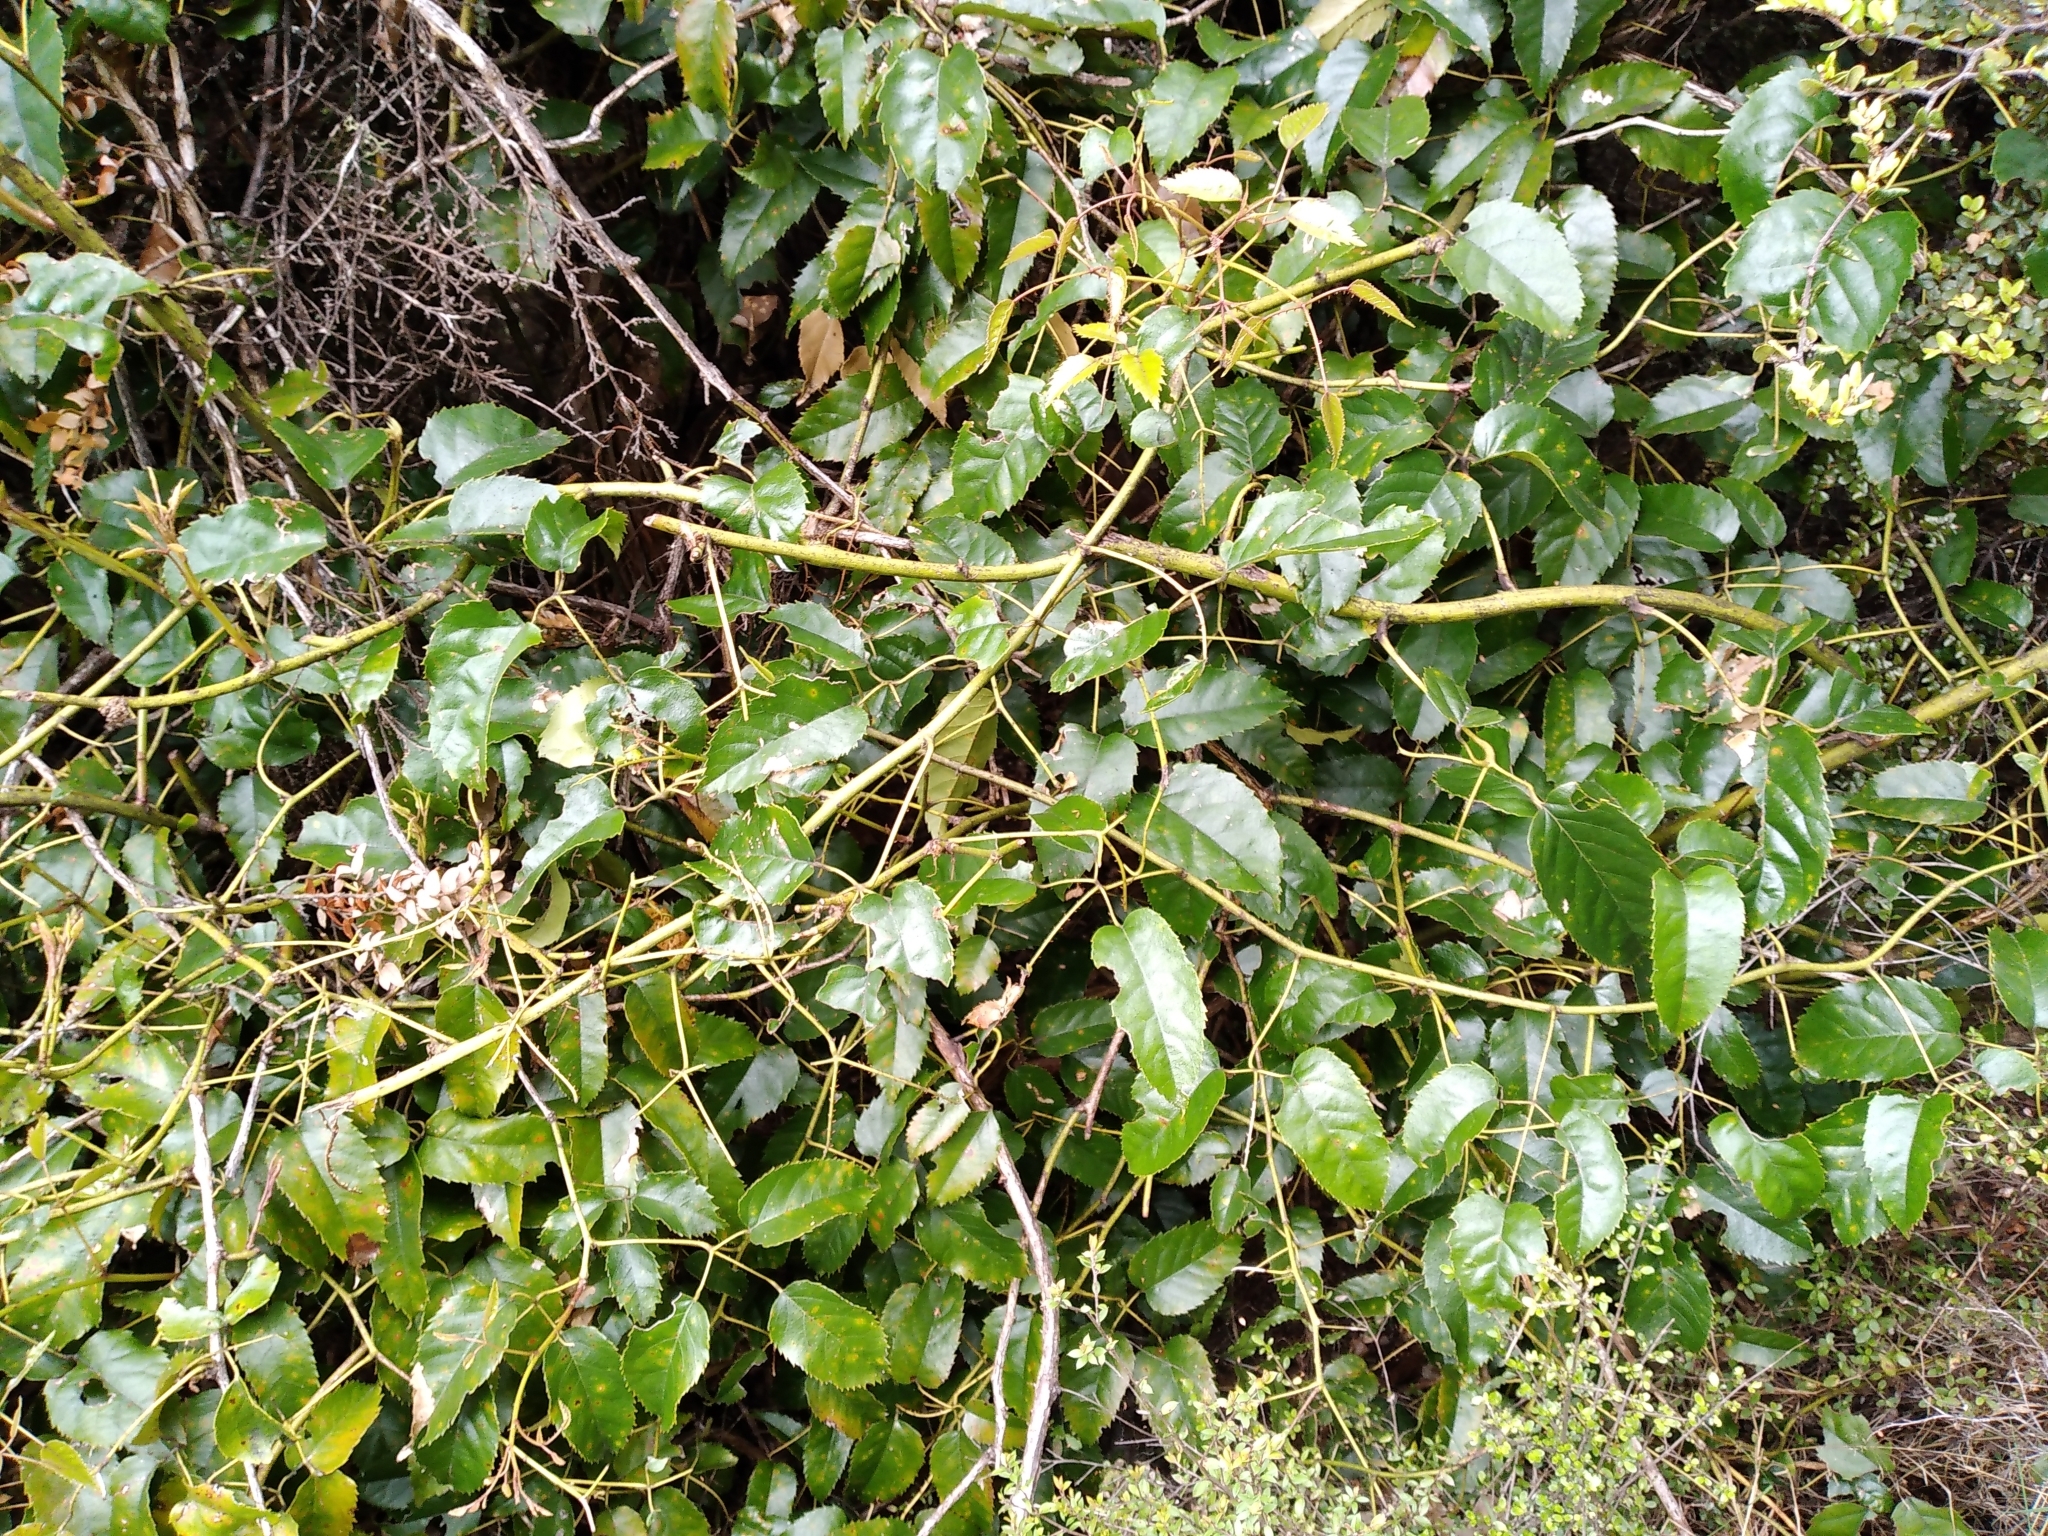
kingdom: Plantae
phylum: Tracheophyta
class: Magnoliopsida
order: Rosales
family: Rosaceae
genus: Rubus
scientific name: Rubus cissoides
